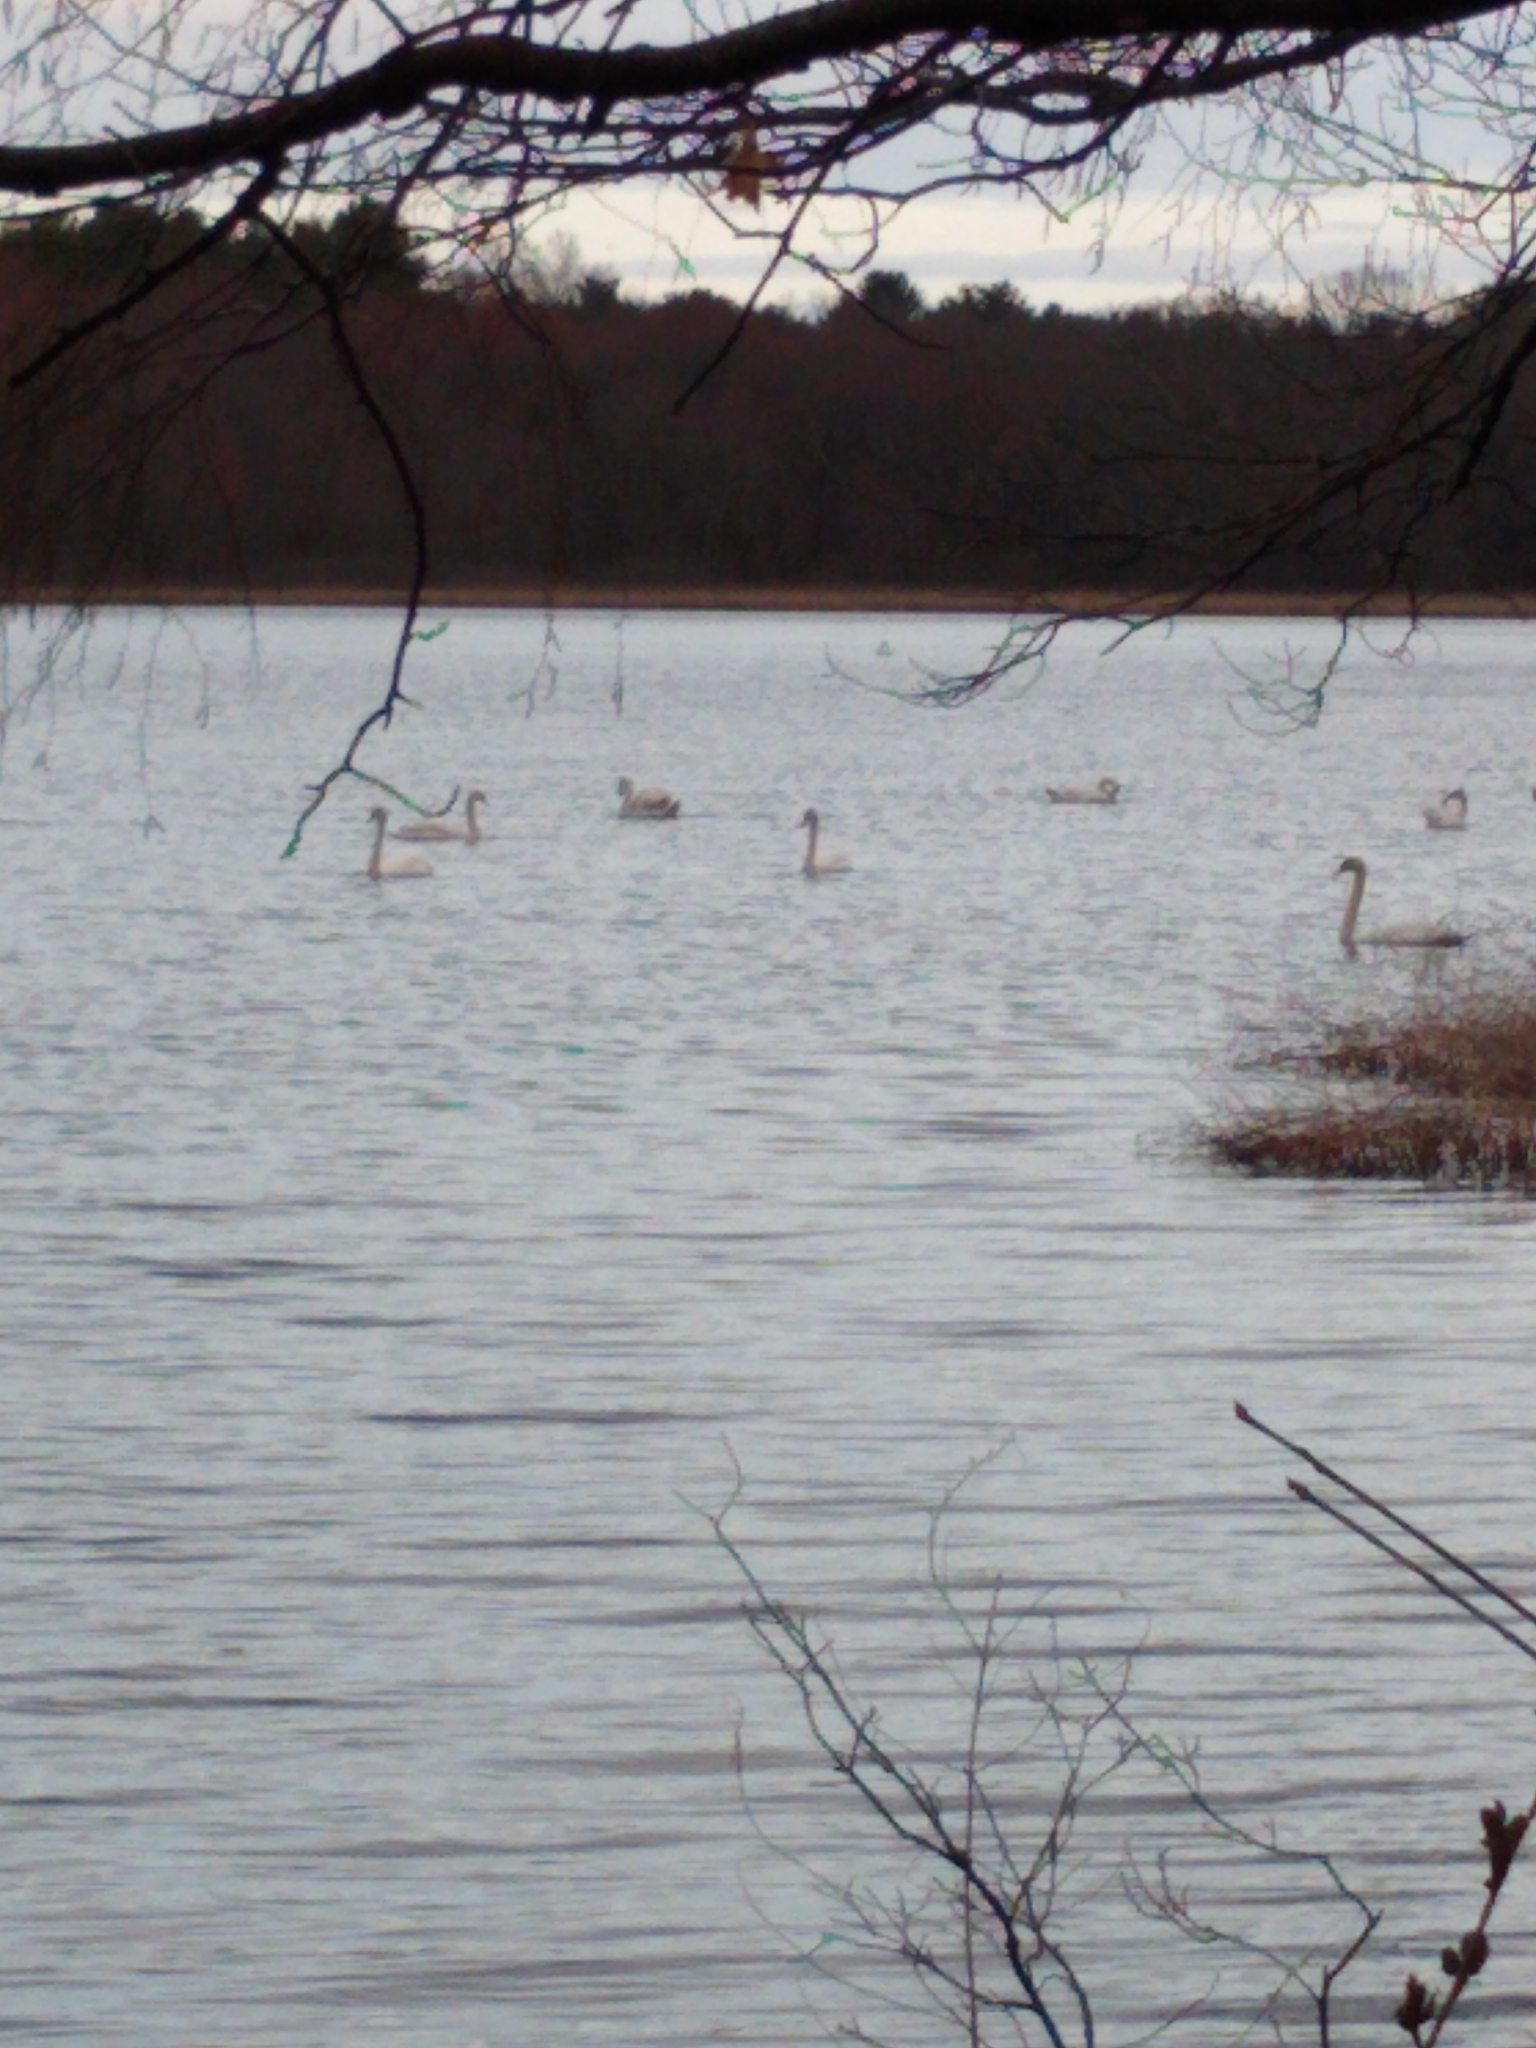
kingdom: Animalia
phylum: Chordata
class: Aves
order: Anseriformes
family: Anatidae
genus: Cygnus
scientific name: Cygnus olor
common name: Mute swan
